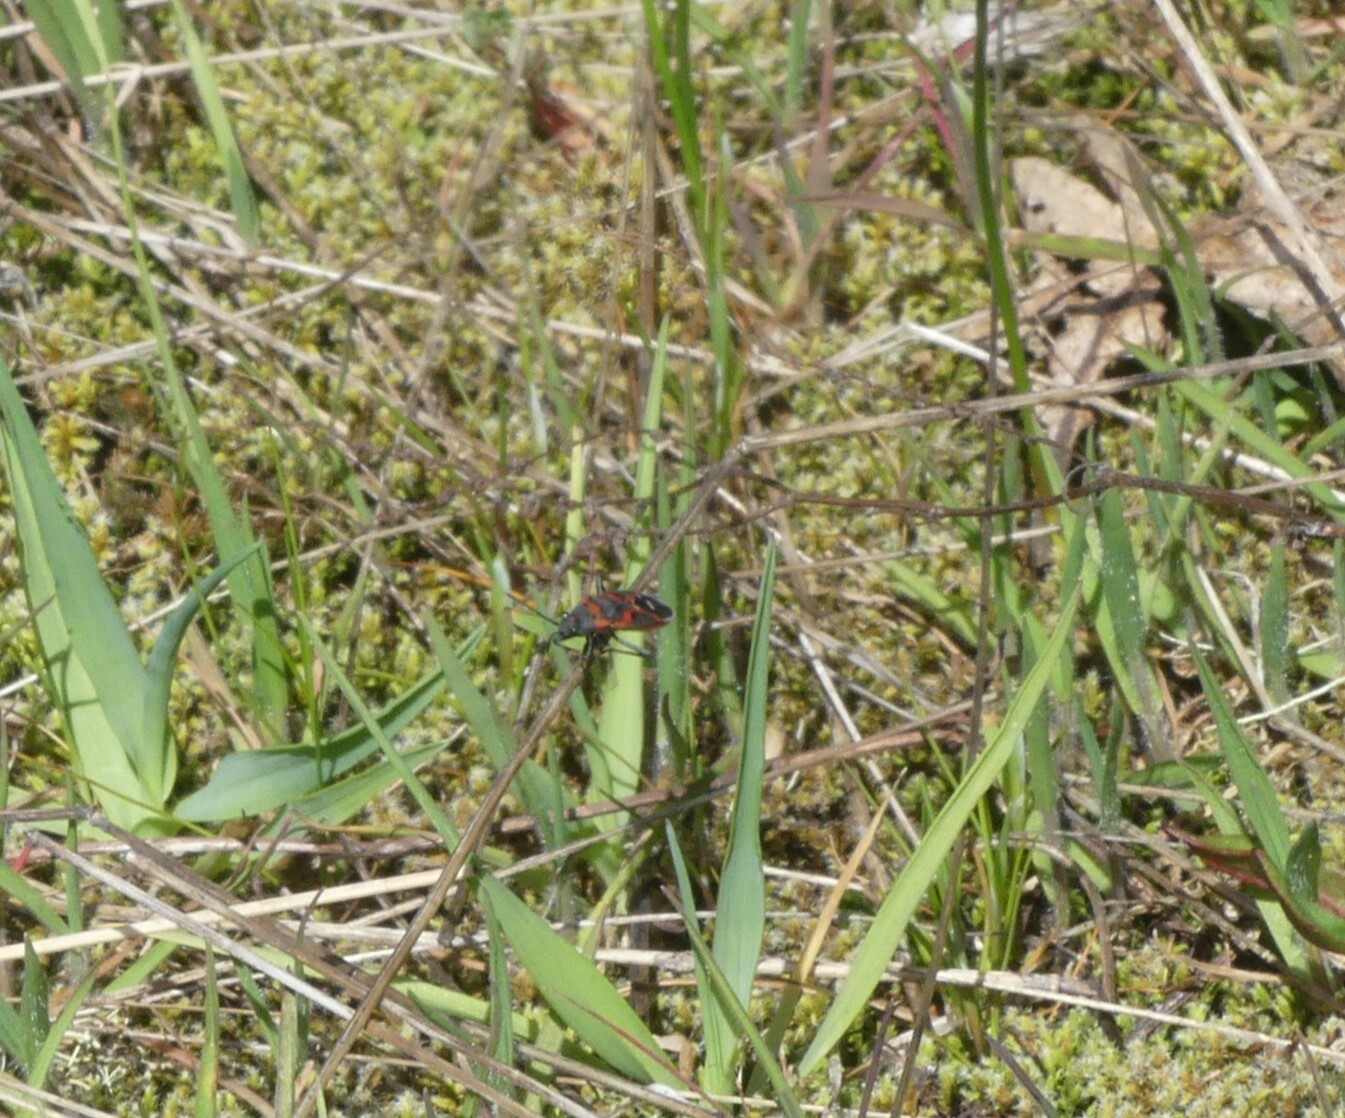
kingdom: Animalia
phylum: Arthropoda
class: Insecta
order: Hemiptera
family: Lygaeidae
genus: Lygaeus
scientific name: Lygaeus kalmii
